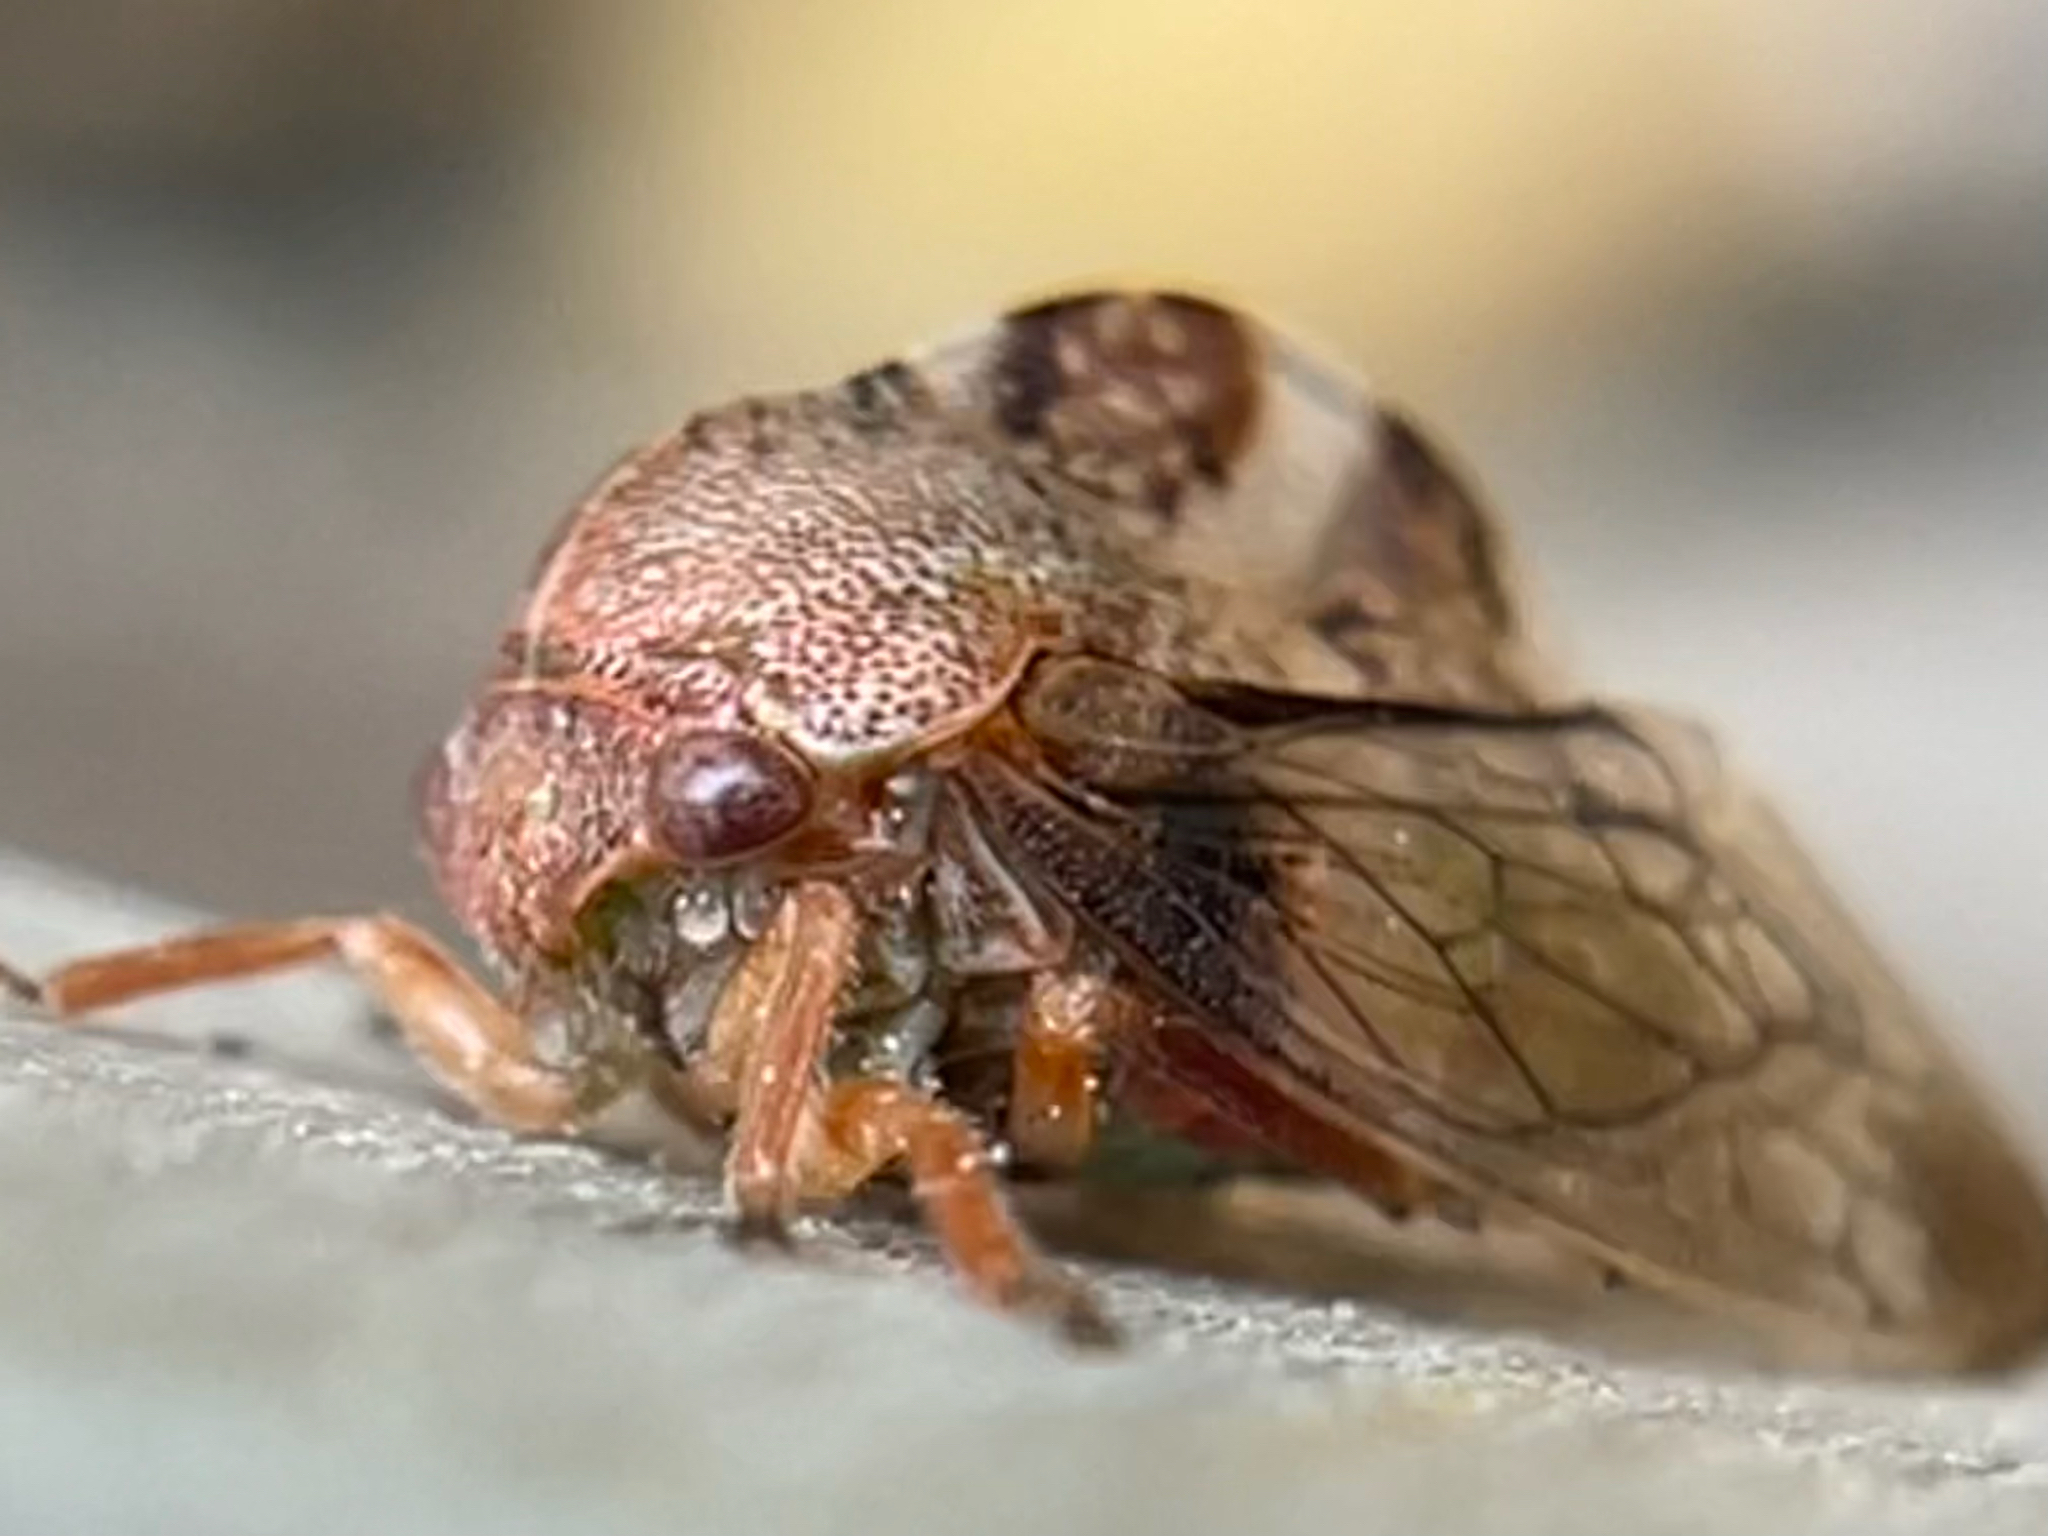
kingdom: Animalia
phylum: Arthropoda
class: Insecta
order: Hemiptera
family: Membracidae
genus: Cyrtolobus
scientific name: Cyrtolobus tuberosa
